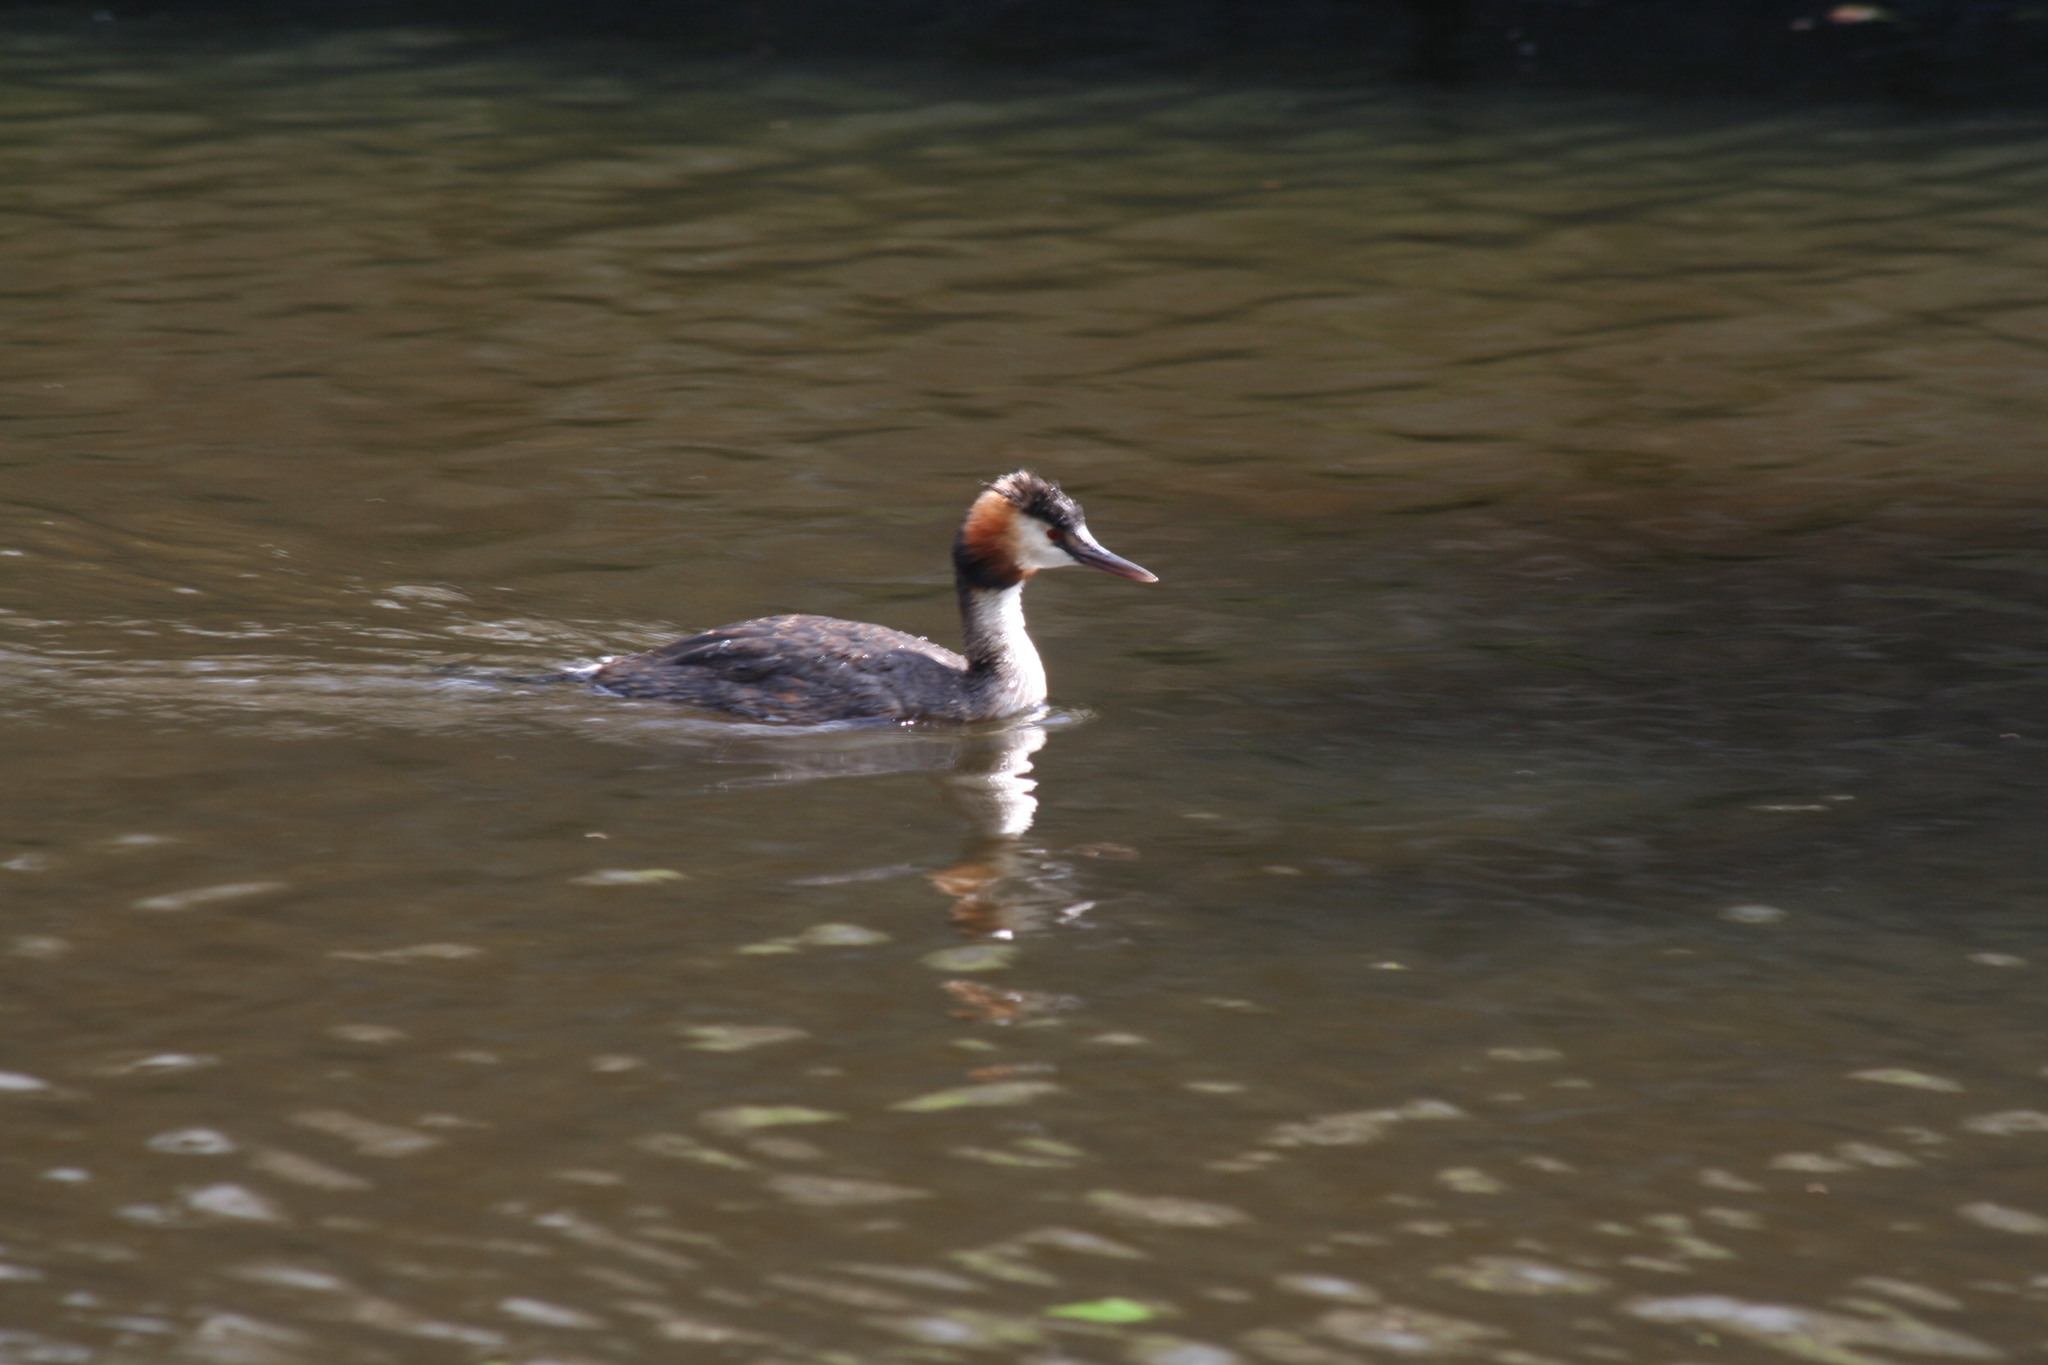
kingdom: Animalia
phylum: Chordata
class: Aves
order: Podicipediformes
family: Podicipedidae
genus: Podiceps
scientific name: Podiceps cristatus
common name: Great crested grebe
